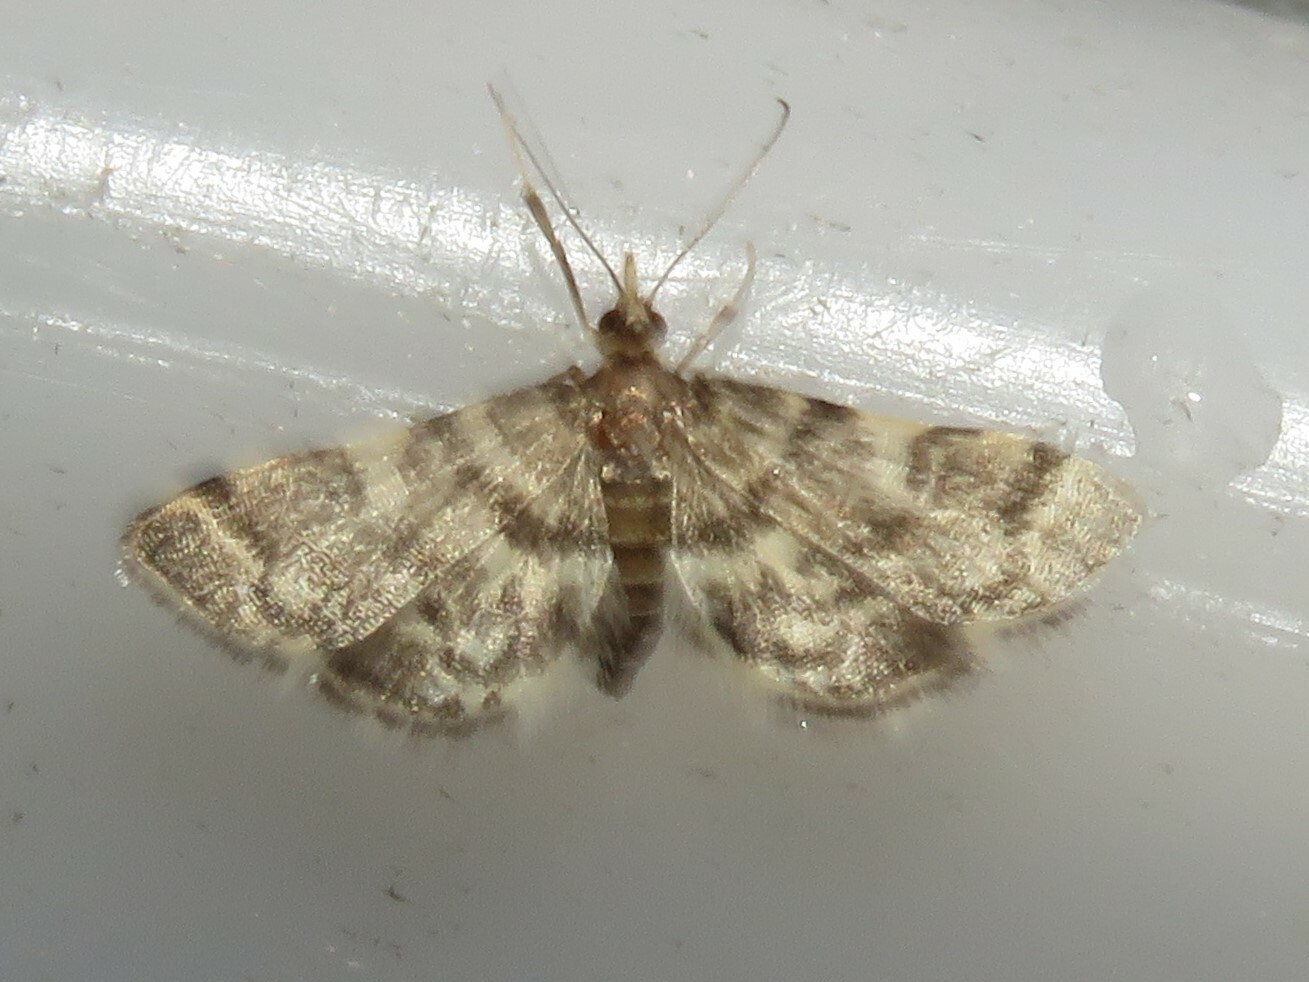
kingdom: Animalia
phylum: Arthropoda
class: Insecta
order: Lepidoptera
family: Crambidae
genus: Anageshna
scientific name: Anageshna primordialis
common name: Yellow-spotted webworm moth
